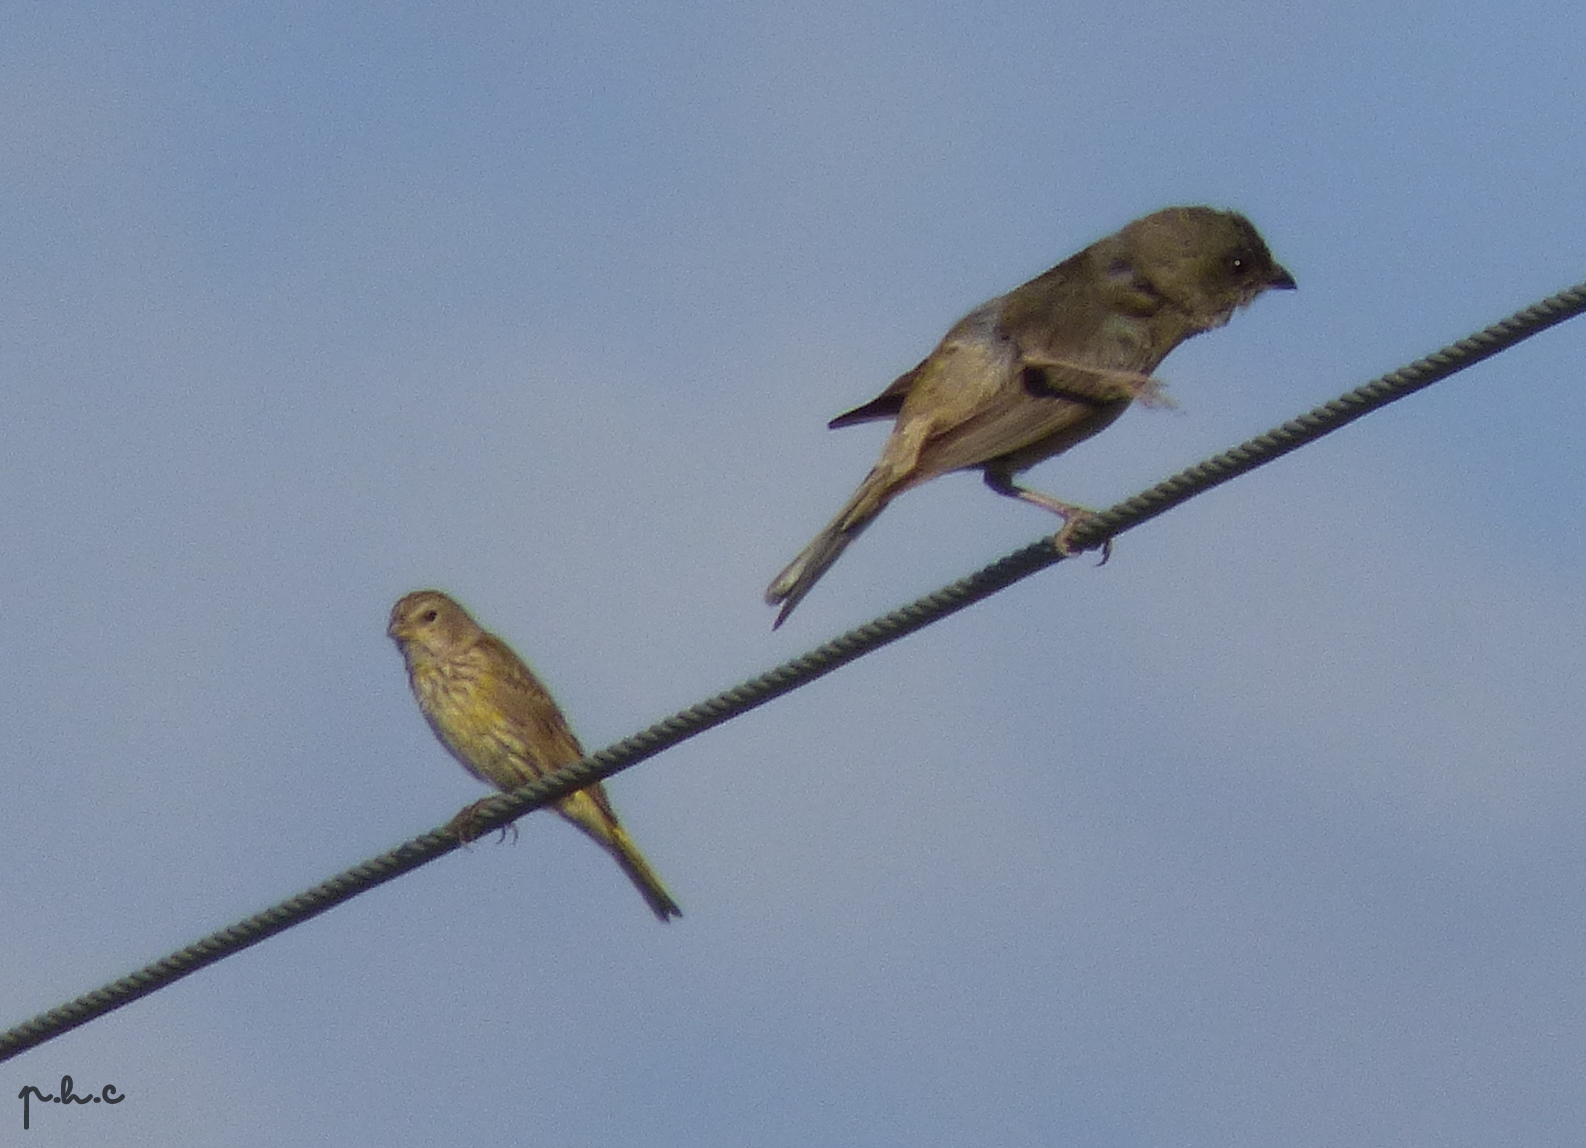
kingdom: Animalia
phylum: Chordata
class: Aves
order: Passeriformes
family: Thraupidae
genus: Sicalis
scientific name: Sicalis luteola
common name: Grassland yellow-finch
